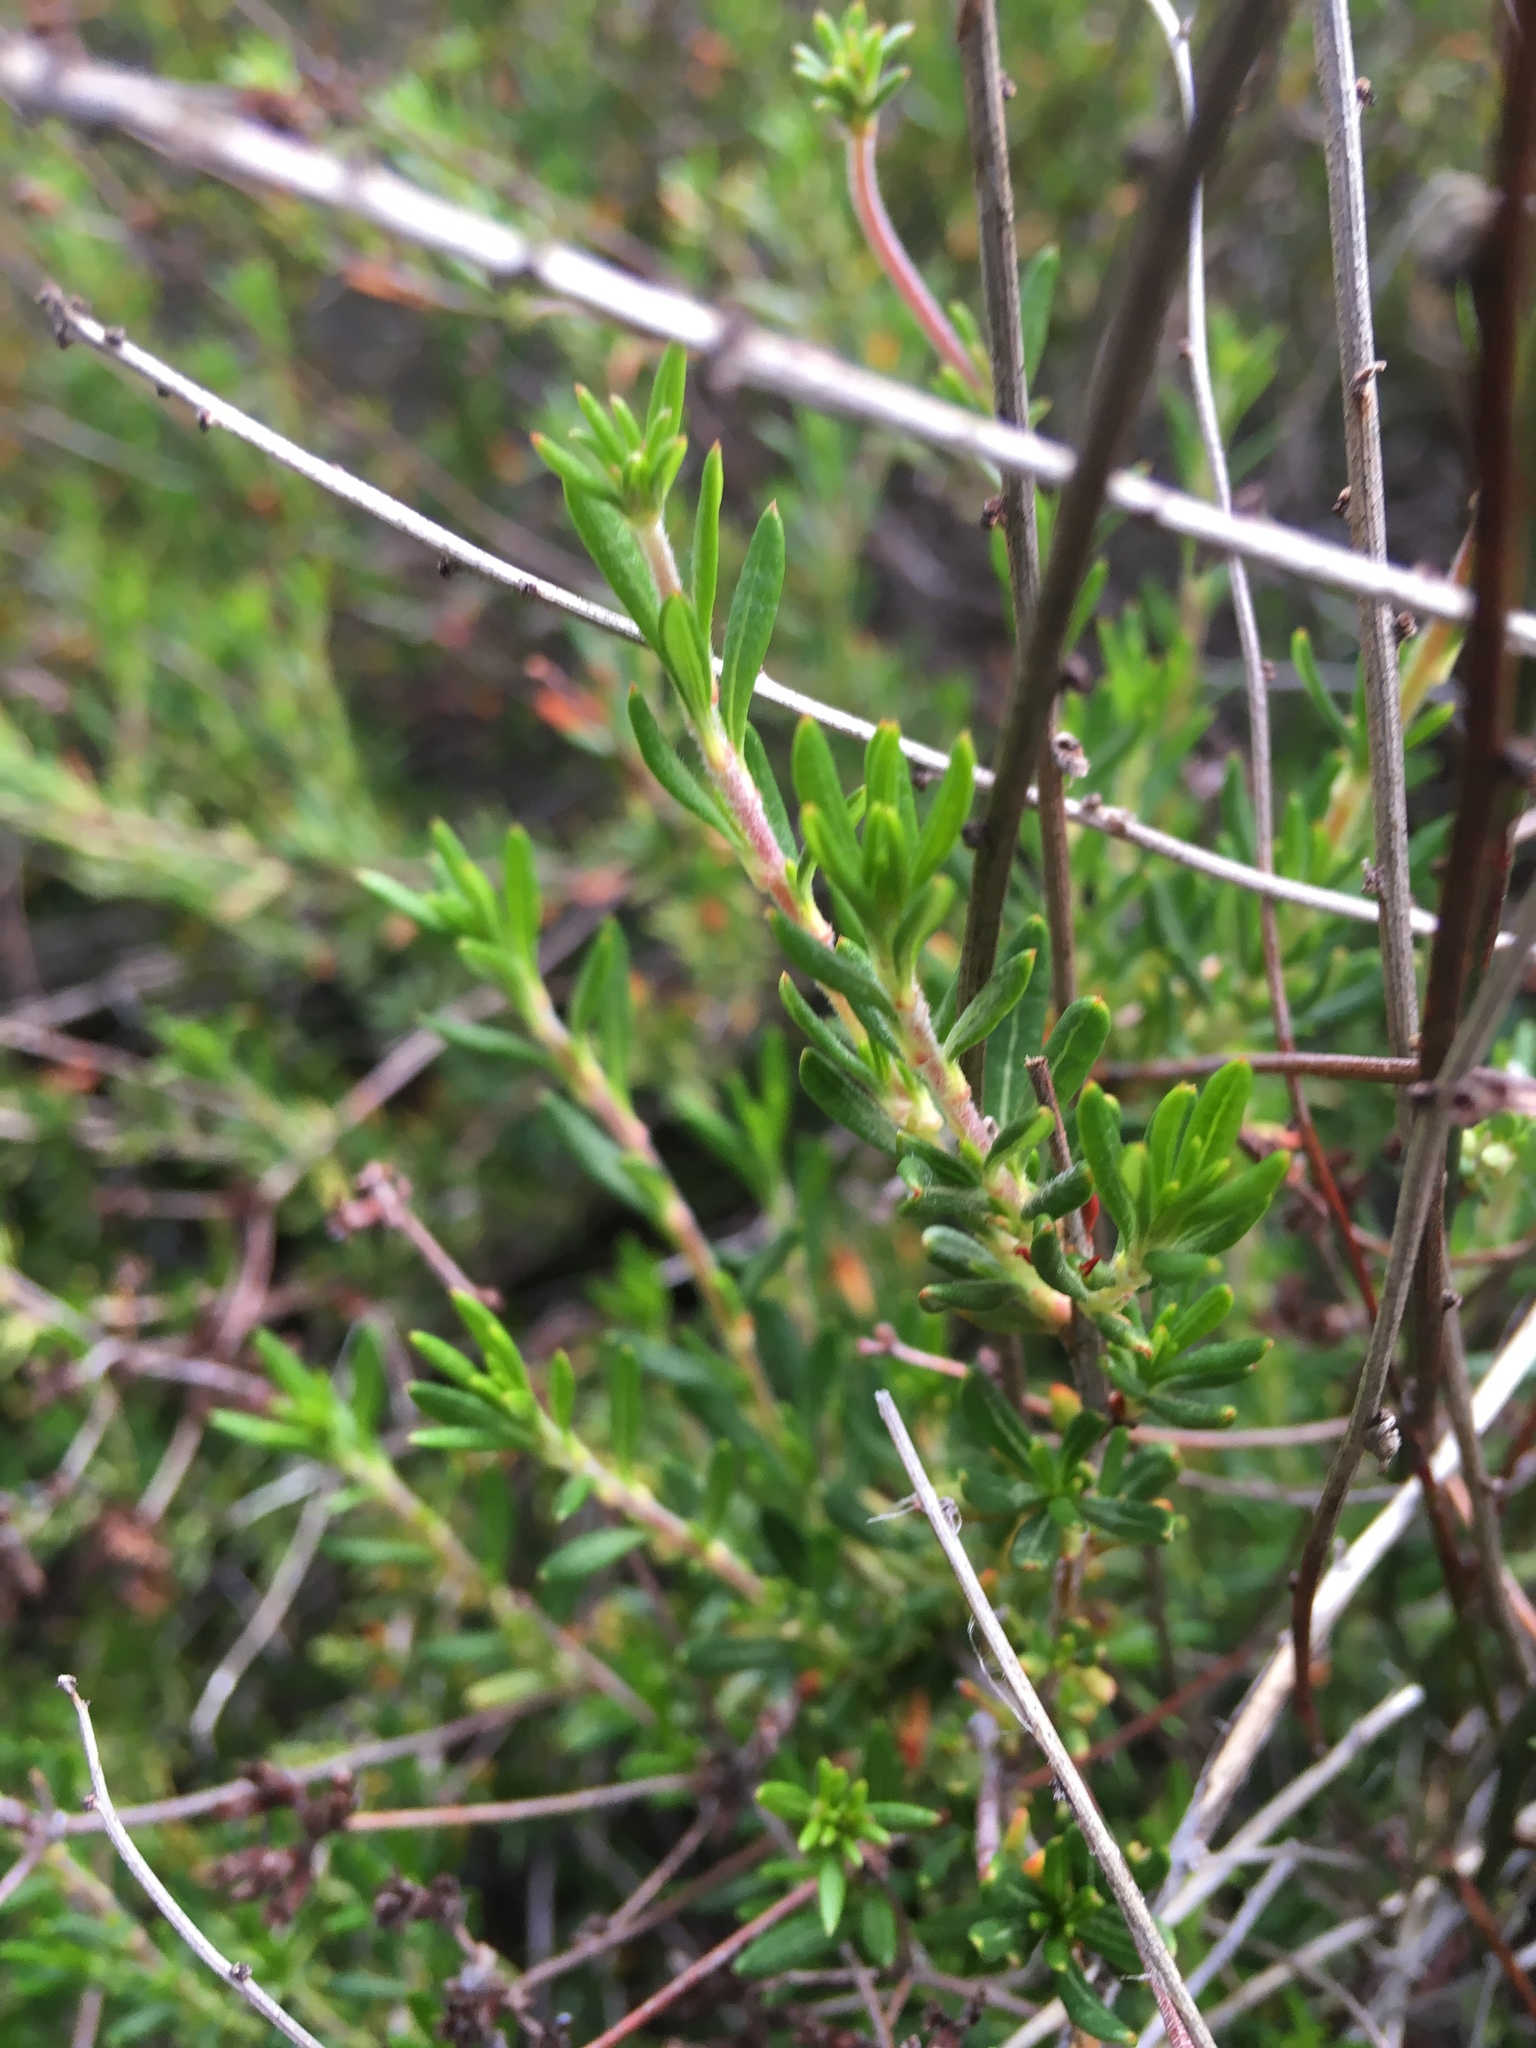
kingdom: Plantae
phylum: Tracheophyta
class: Magnoliopsida
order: Caryophyllales
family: Polygonaceae
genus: Eriogonum
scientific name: Eriogonum fasciculatum
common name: California wild buckwheat
